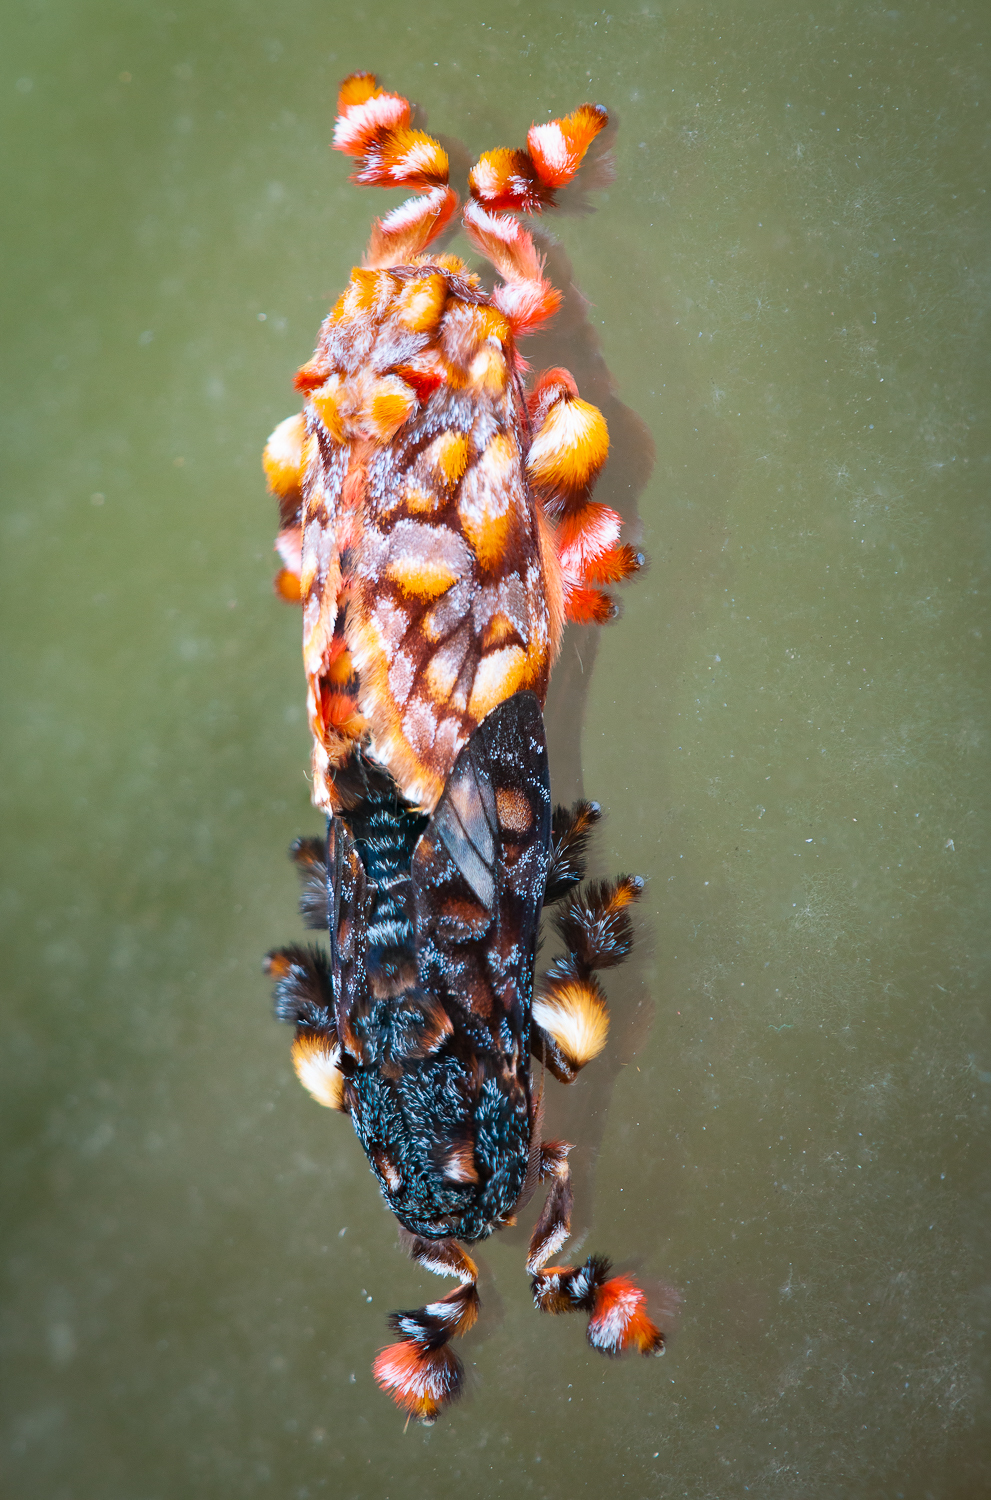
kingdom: Animalia
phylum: Arthropoda
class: Insecta
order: Lepidoptera
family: Limacodidae
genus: Phobetron
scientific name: Phobetron hipparchia
